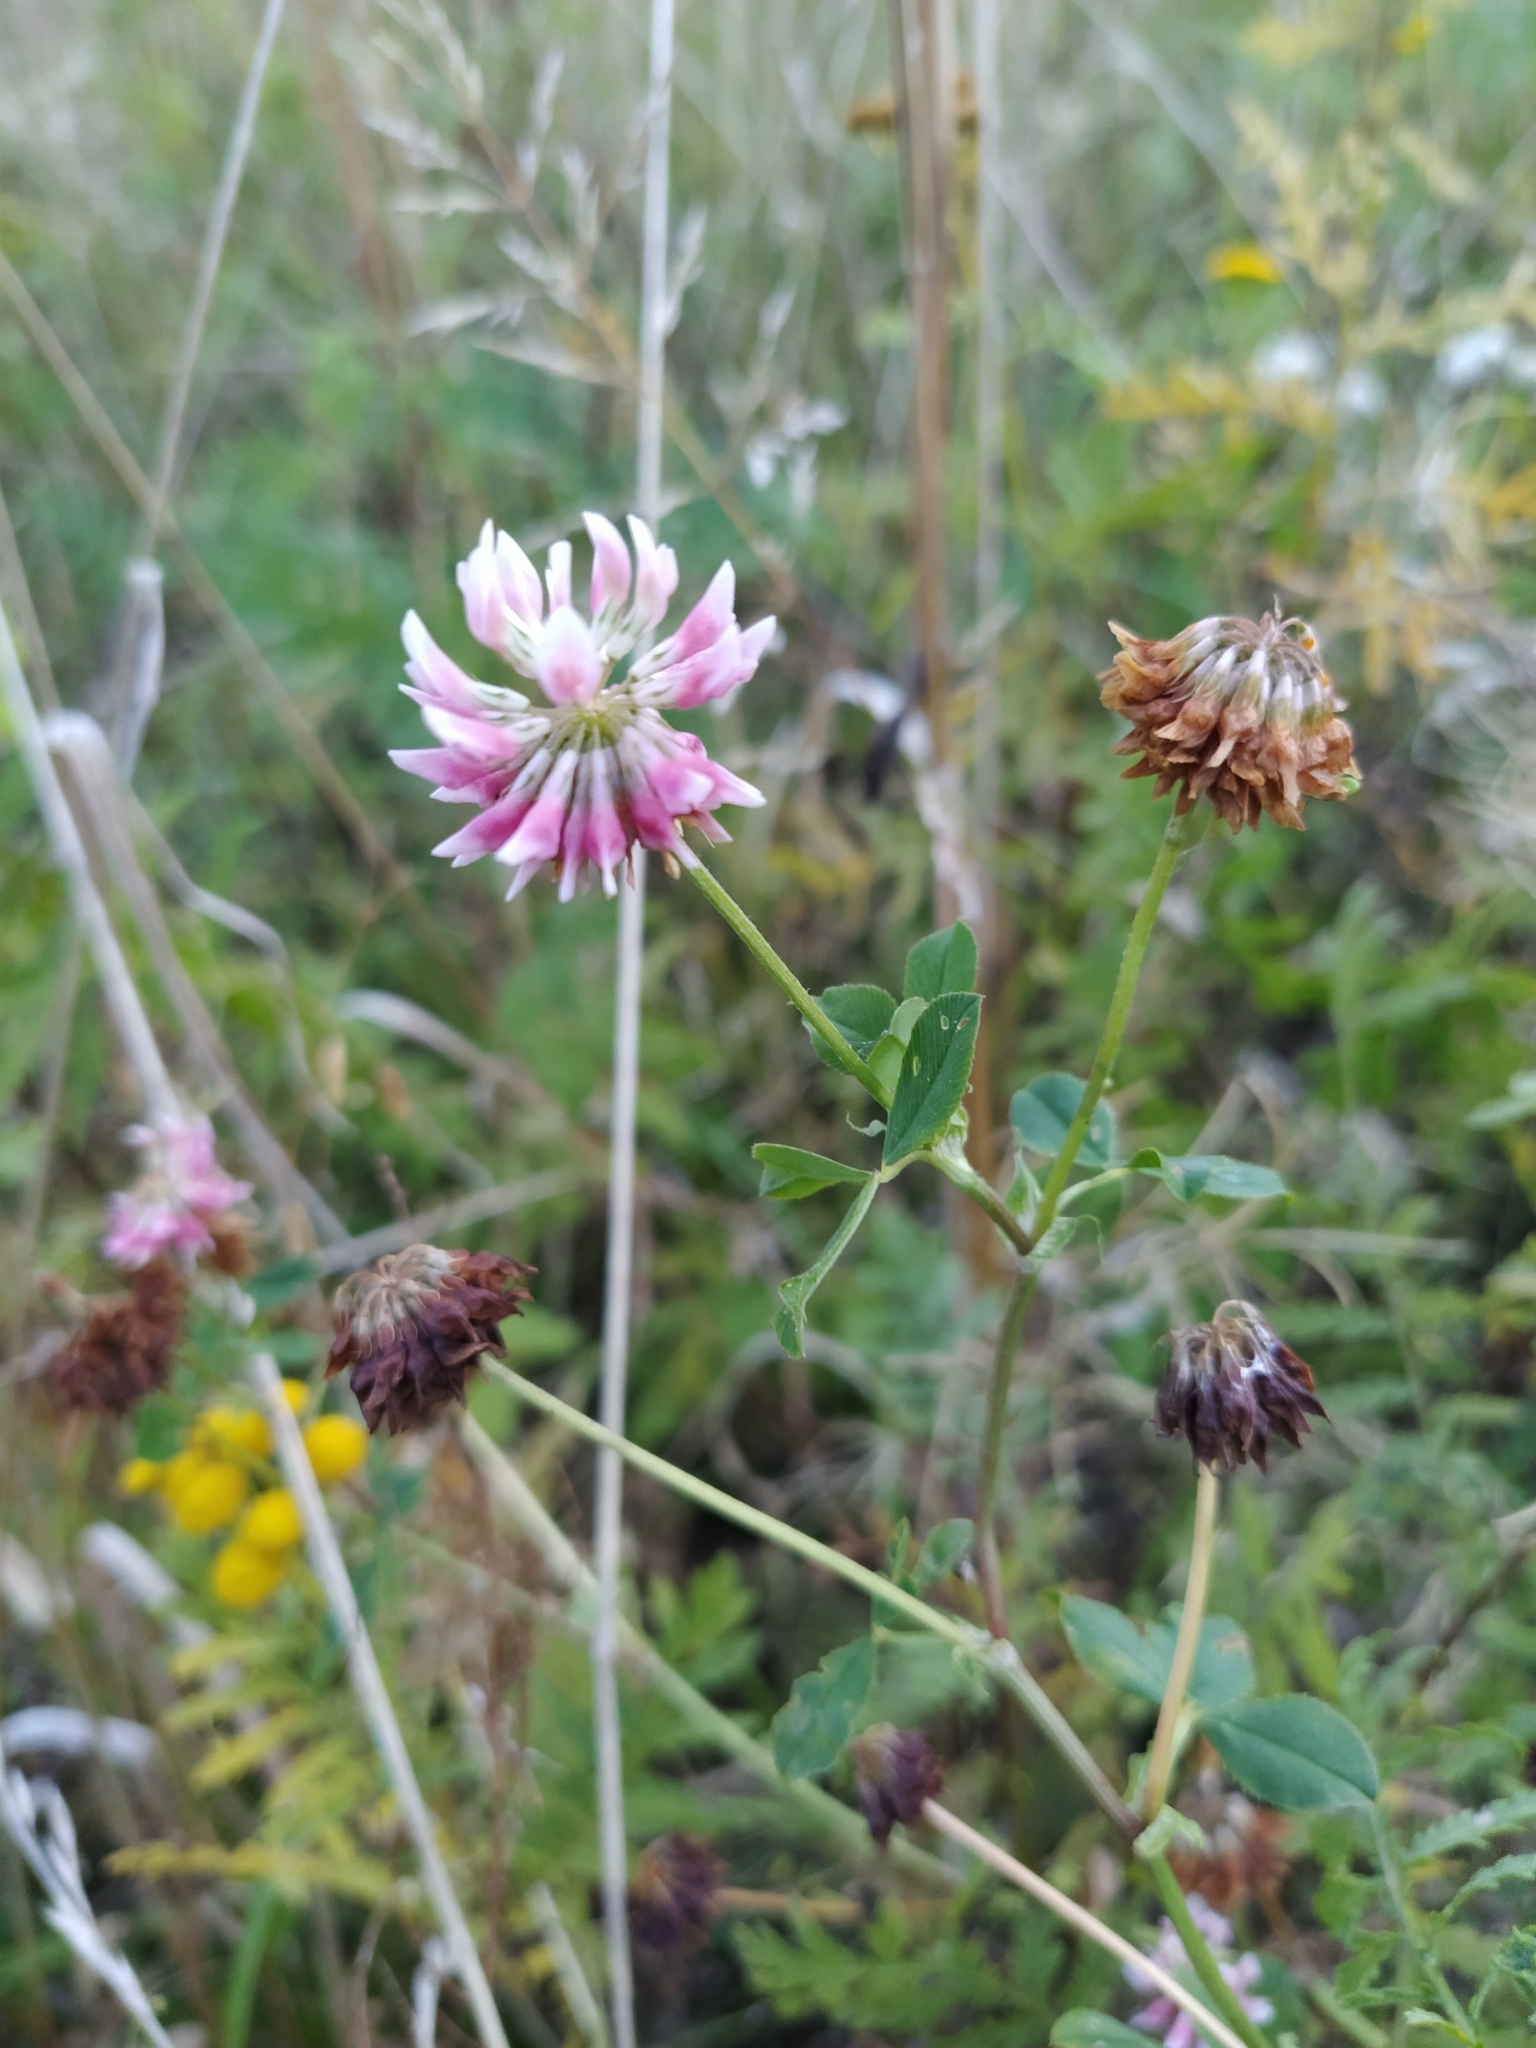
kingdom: Plantae
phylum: Tracheophyta
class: Magnoliopsida
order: Fabales
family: Fabaceae
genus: Trifolium
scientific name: Trifolium hybridum
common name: Alsike clover
